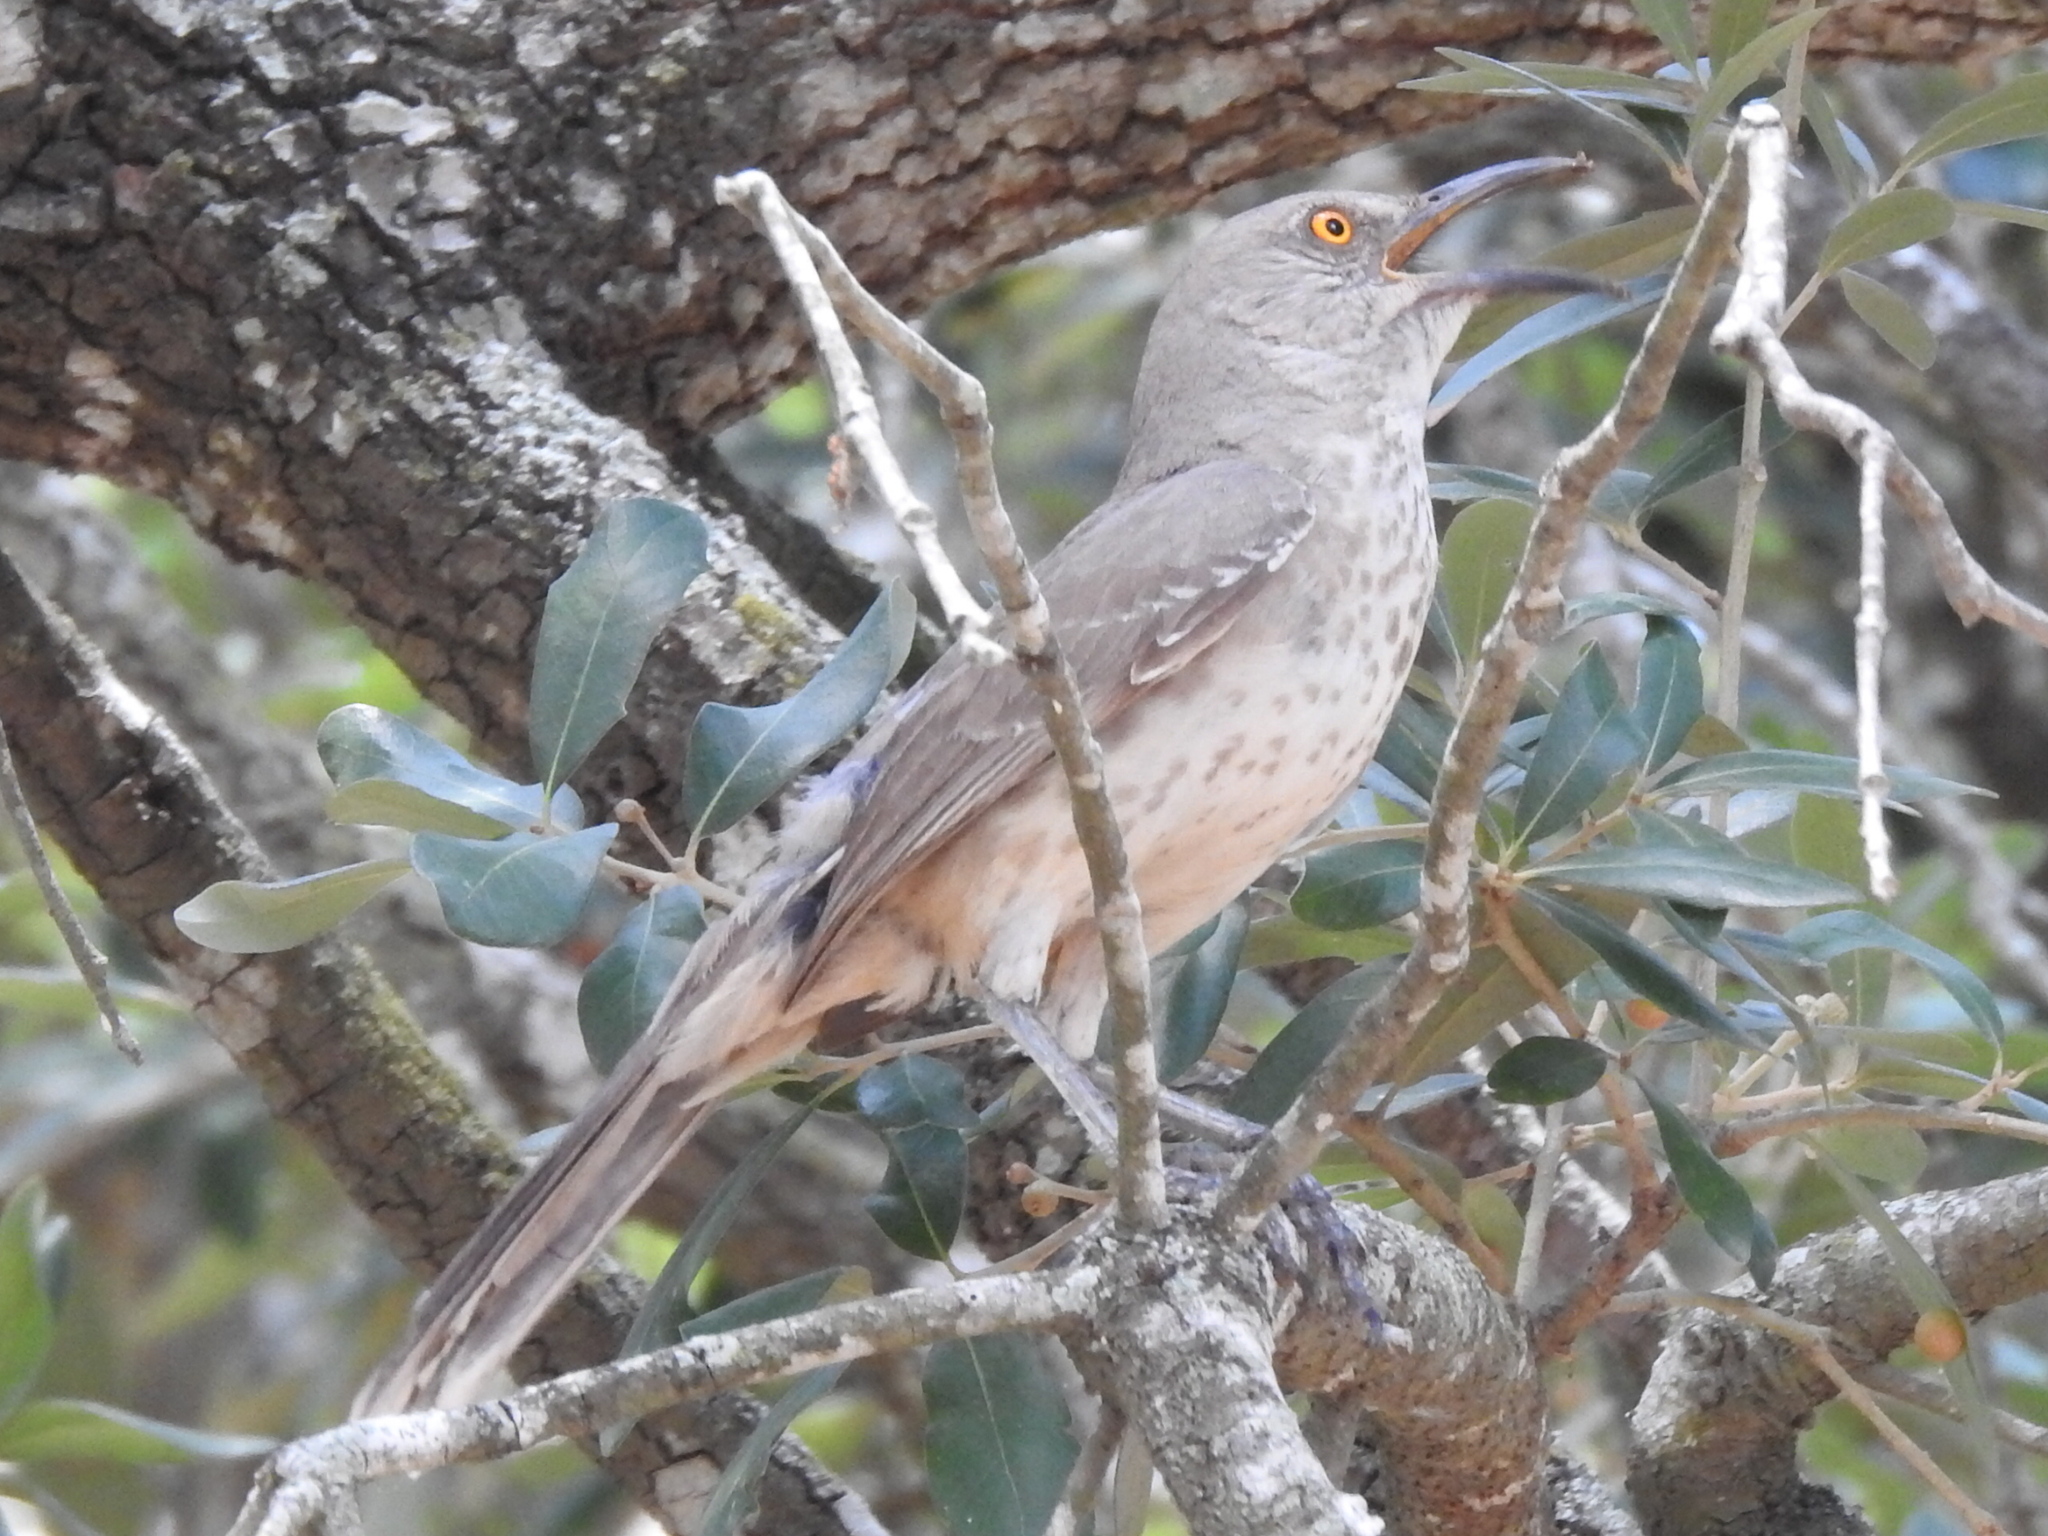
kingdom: Animalia
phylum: Chordata
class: Aves
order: Passeriformes
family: Mimidae
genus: Toxostoma
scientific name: Toxostoma curvirostre
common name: Curve-billed thrasher
